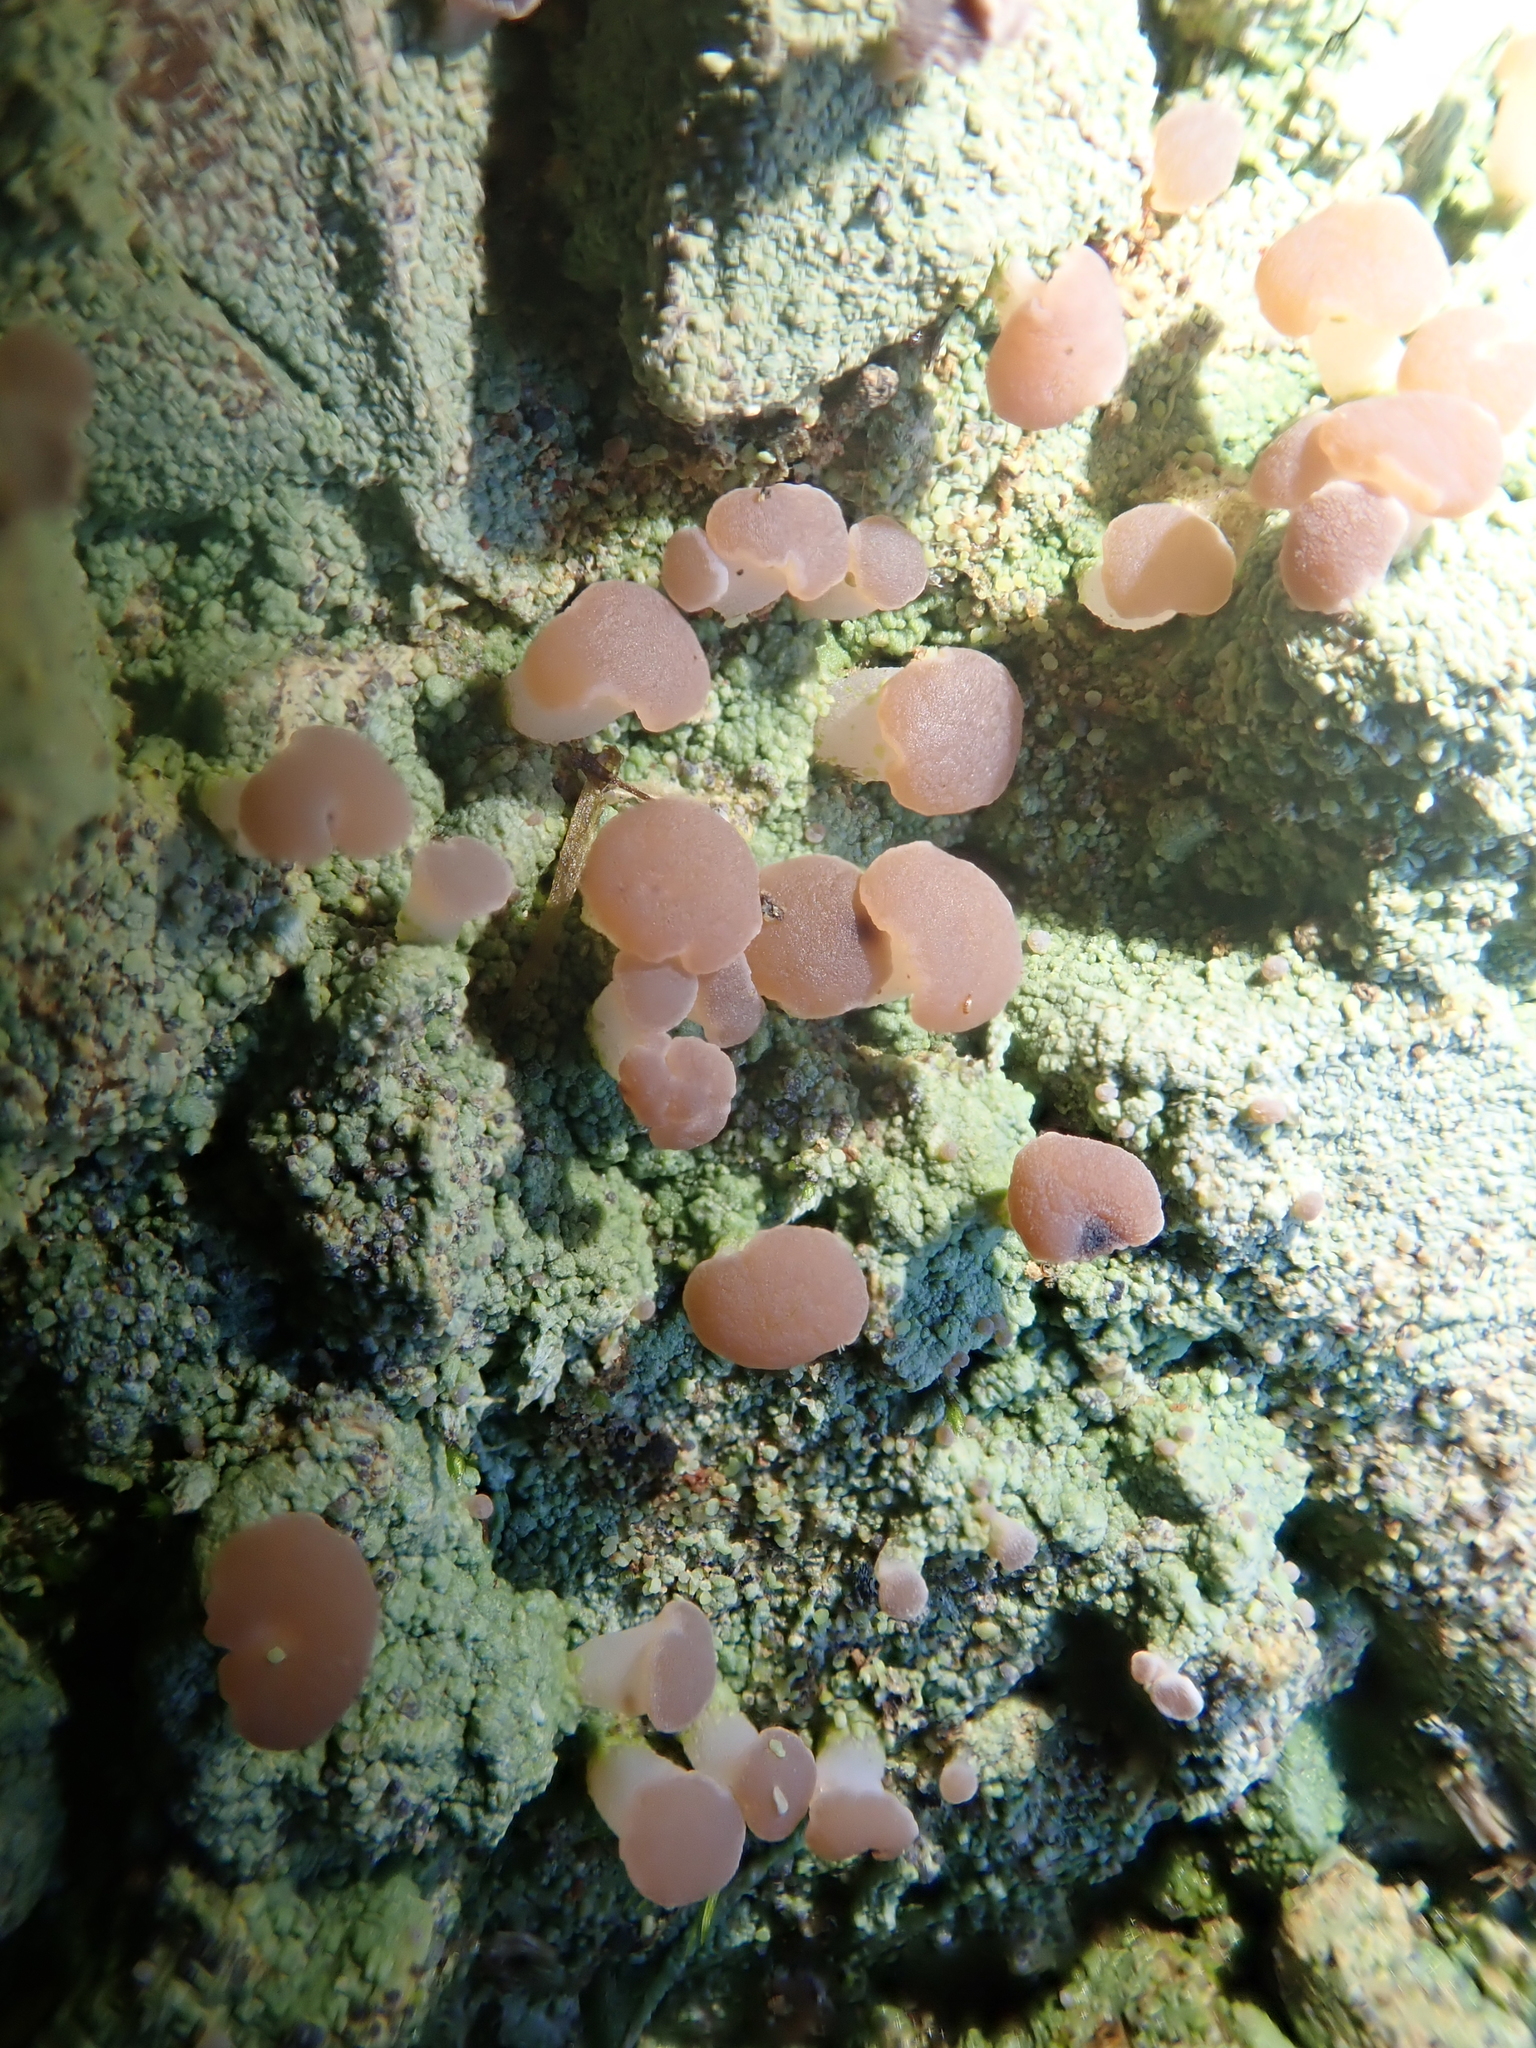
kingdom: Fungi
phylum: Ascomycota
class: Lecanoromycetes
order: Baeomycetales
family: Baeomycetaceae
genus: Baeomyces
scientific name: Baeomyces heteromorphus
